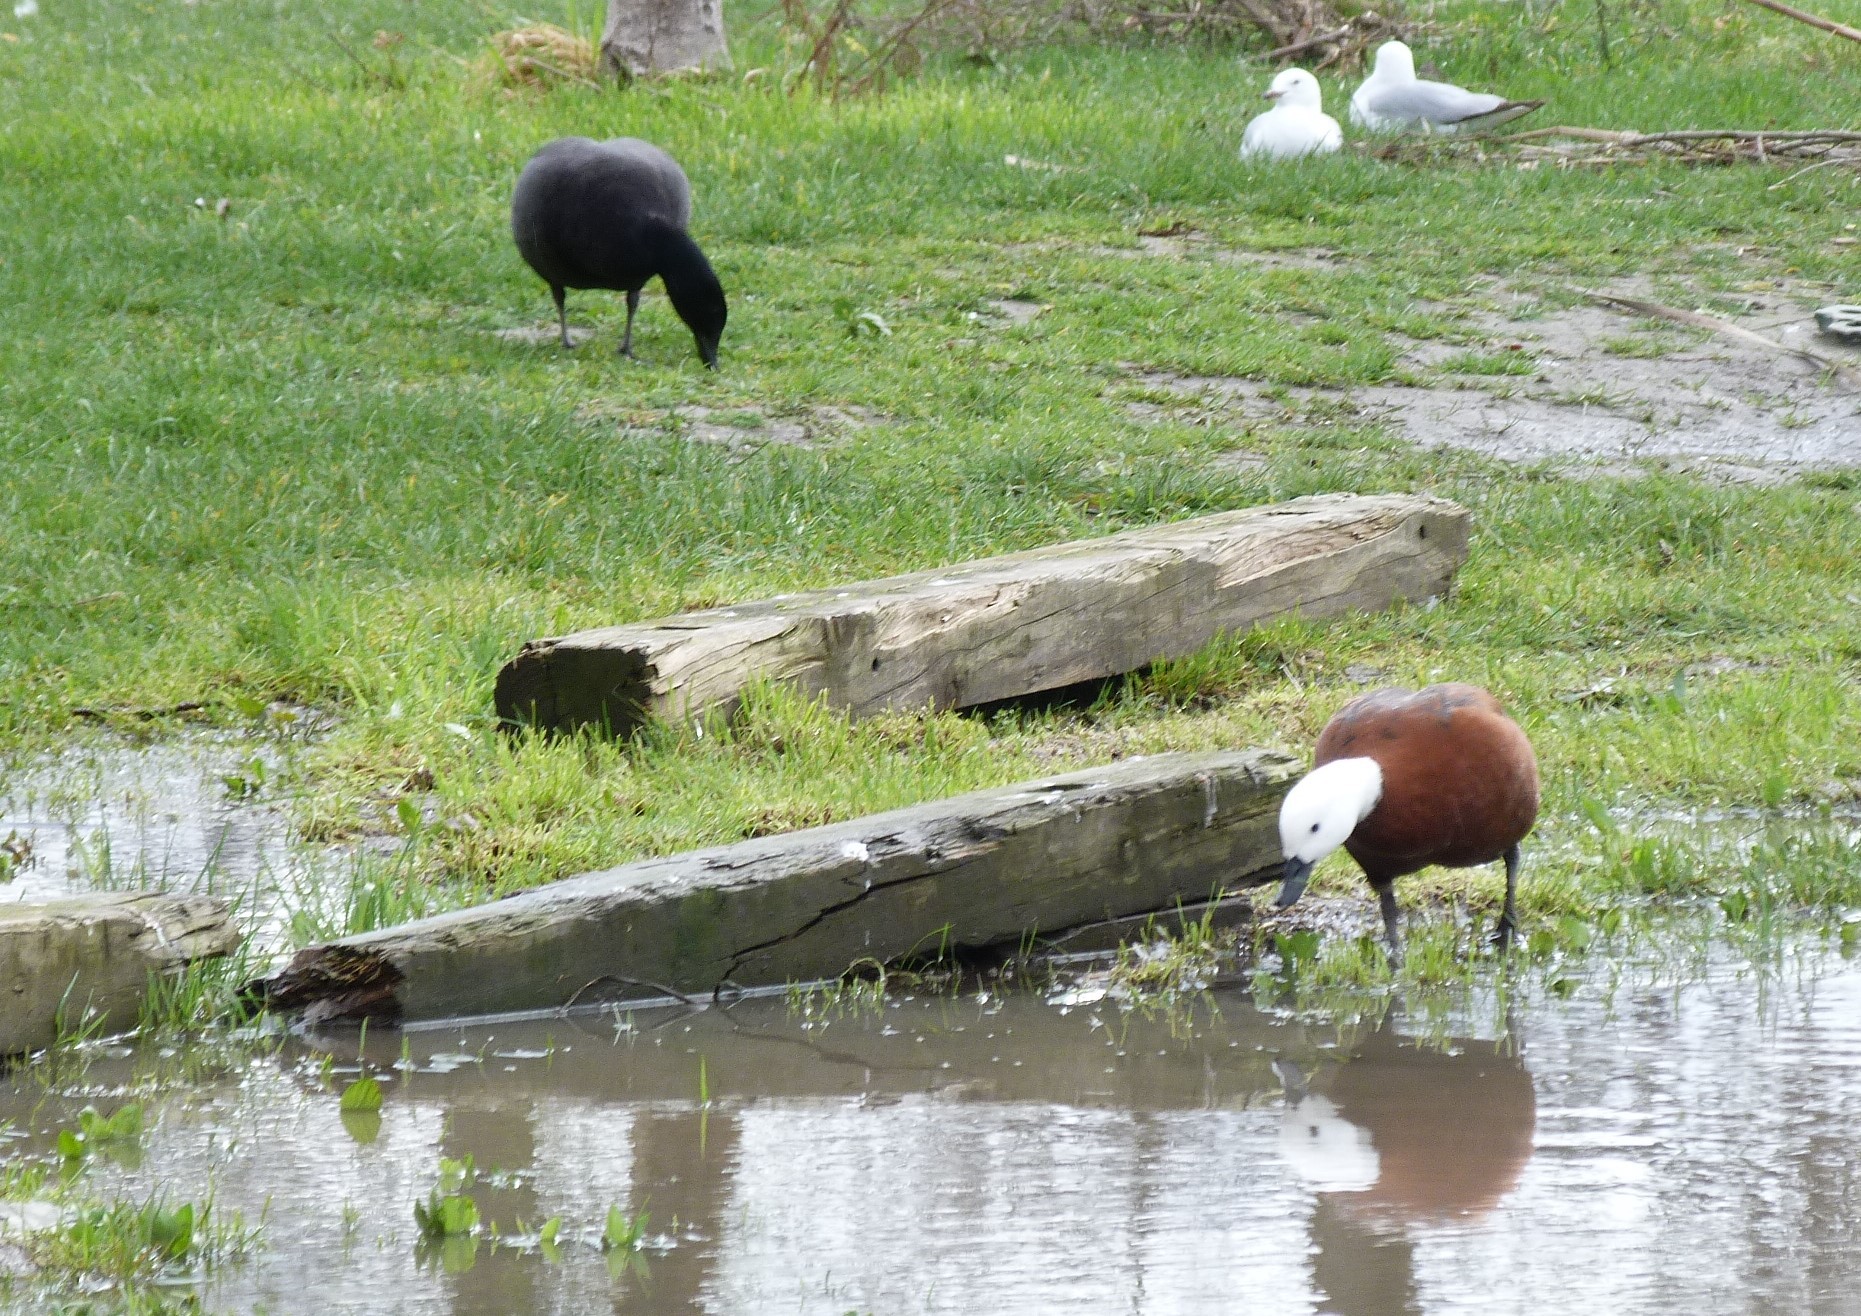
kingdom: Animalia
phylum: Chordata
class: Aves
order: Anseriformes
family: Anatidae
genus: Tadorna
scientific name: Tadorna variegata
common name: Paradise shelduck
